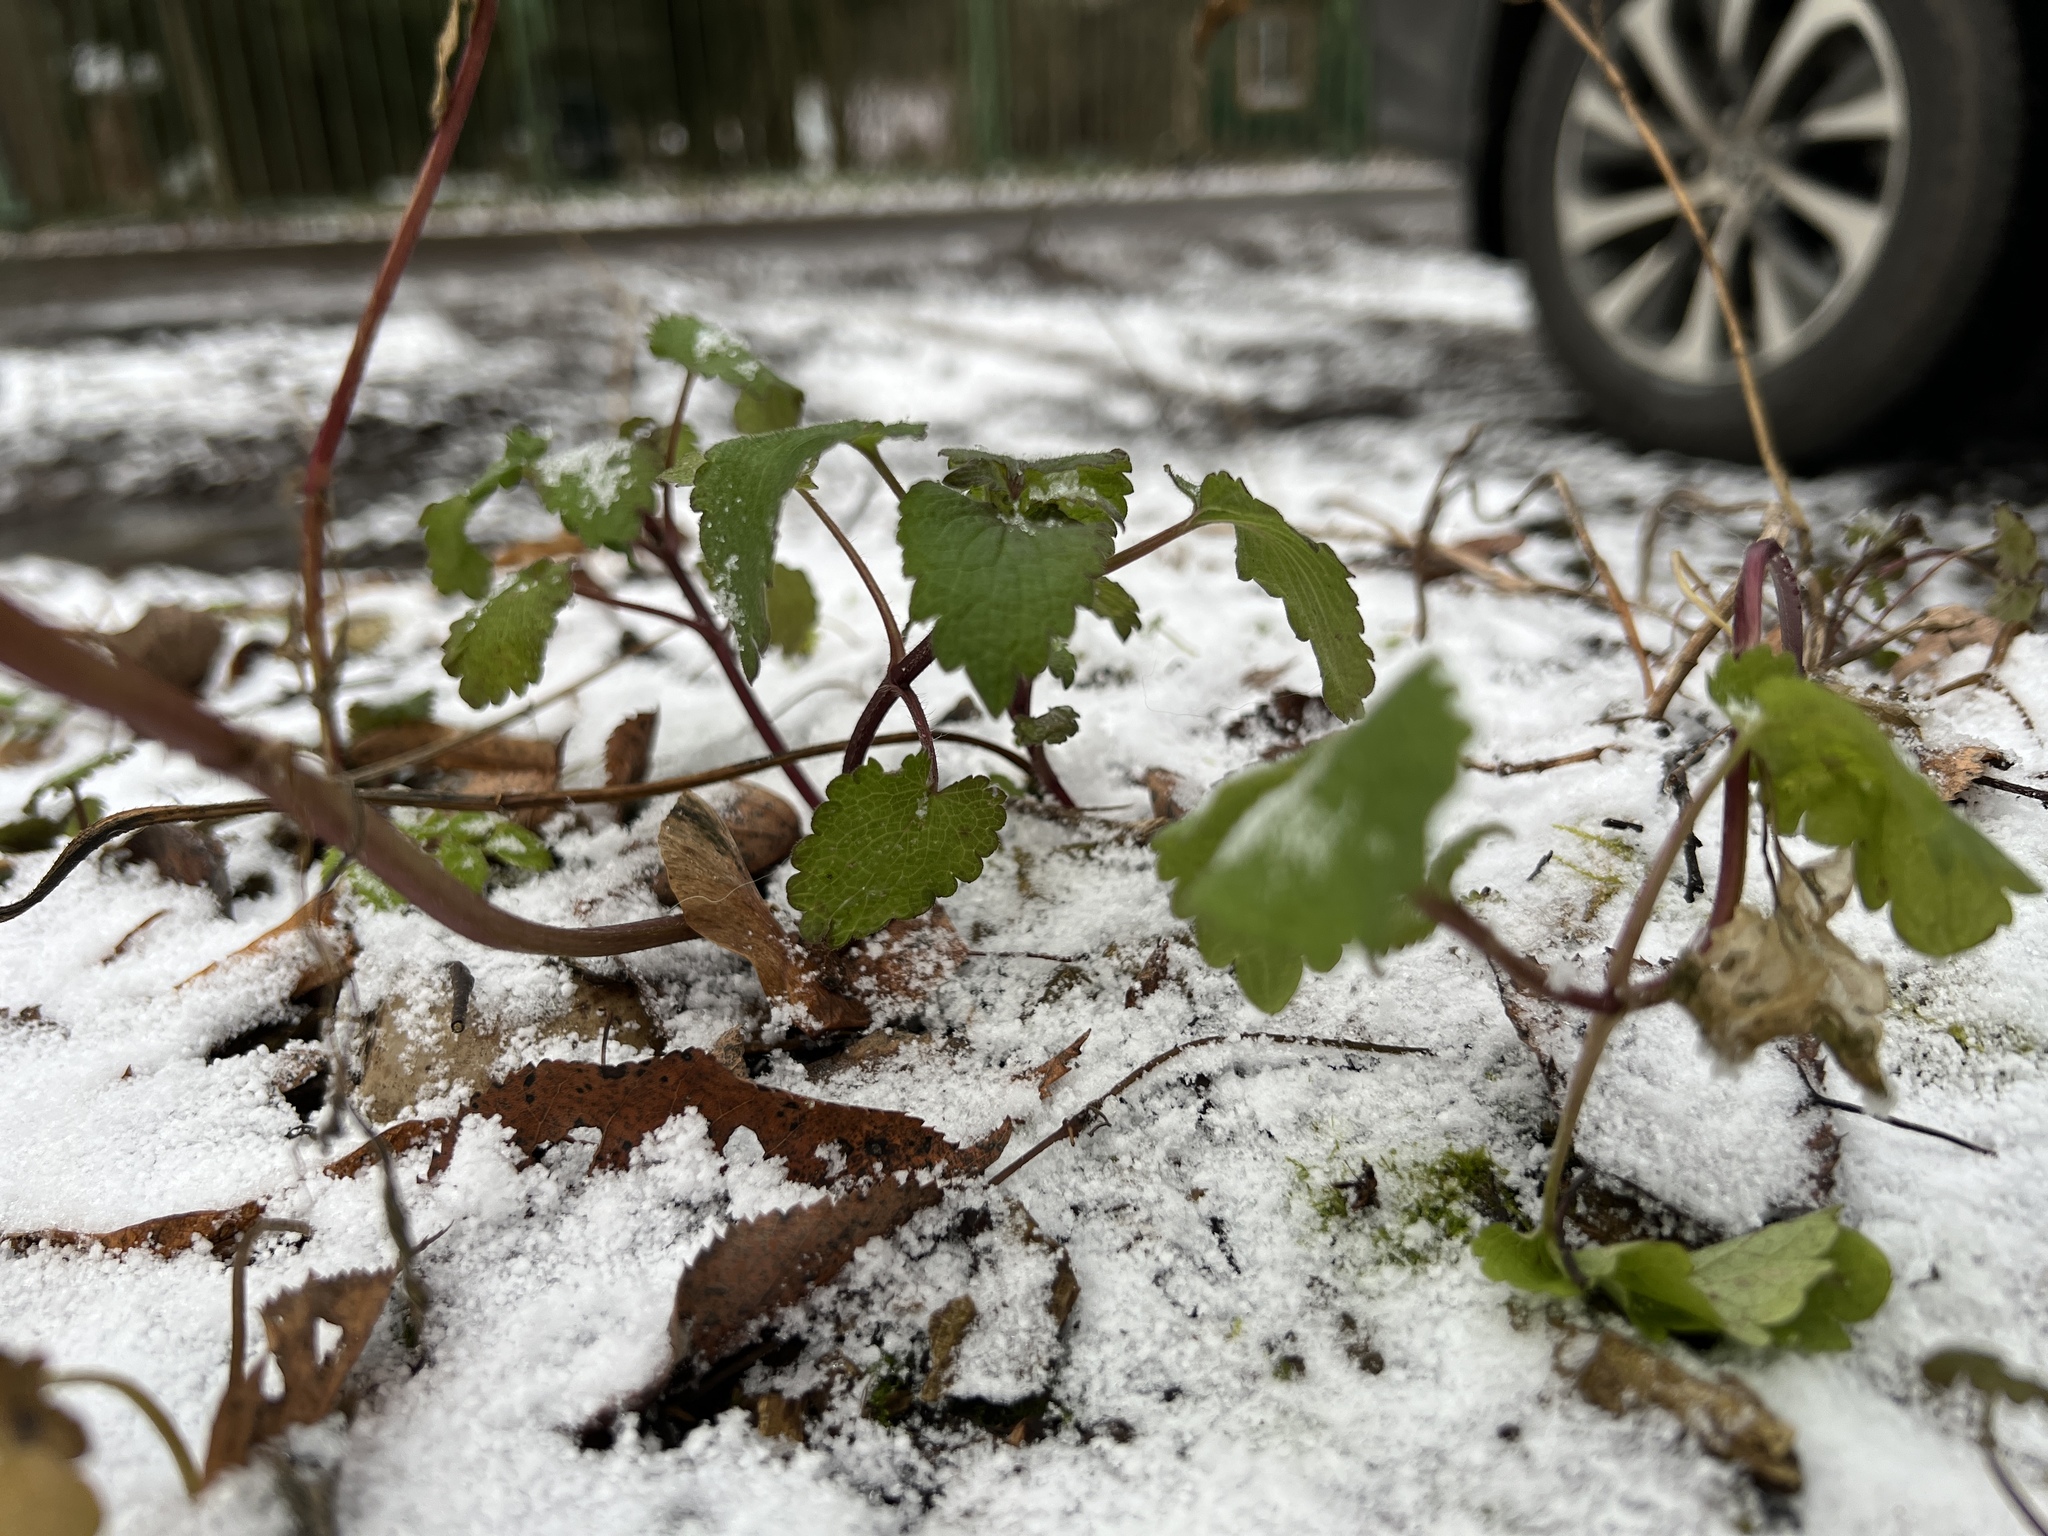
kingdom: Plantae
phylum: Tracheophyta
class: Magnoliopsida
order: Lamiales
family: Lamiaceae
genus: Lamium
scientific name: Lamium maculatum
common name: Spotted dead-nettle
